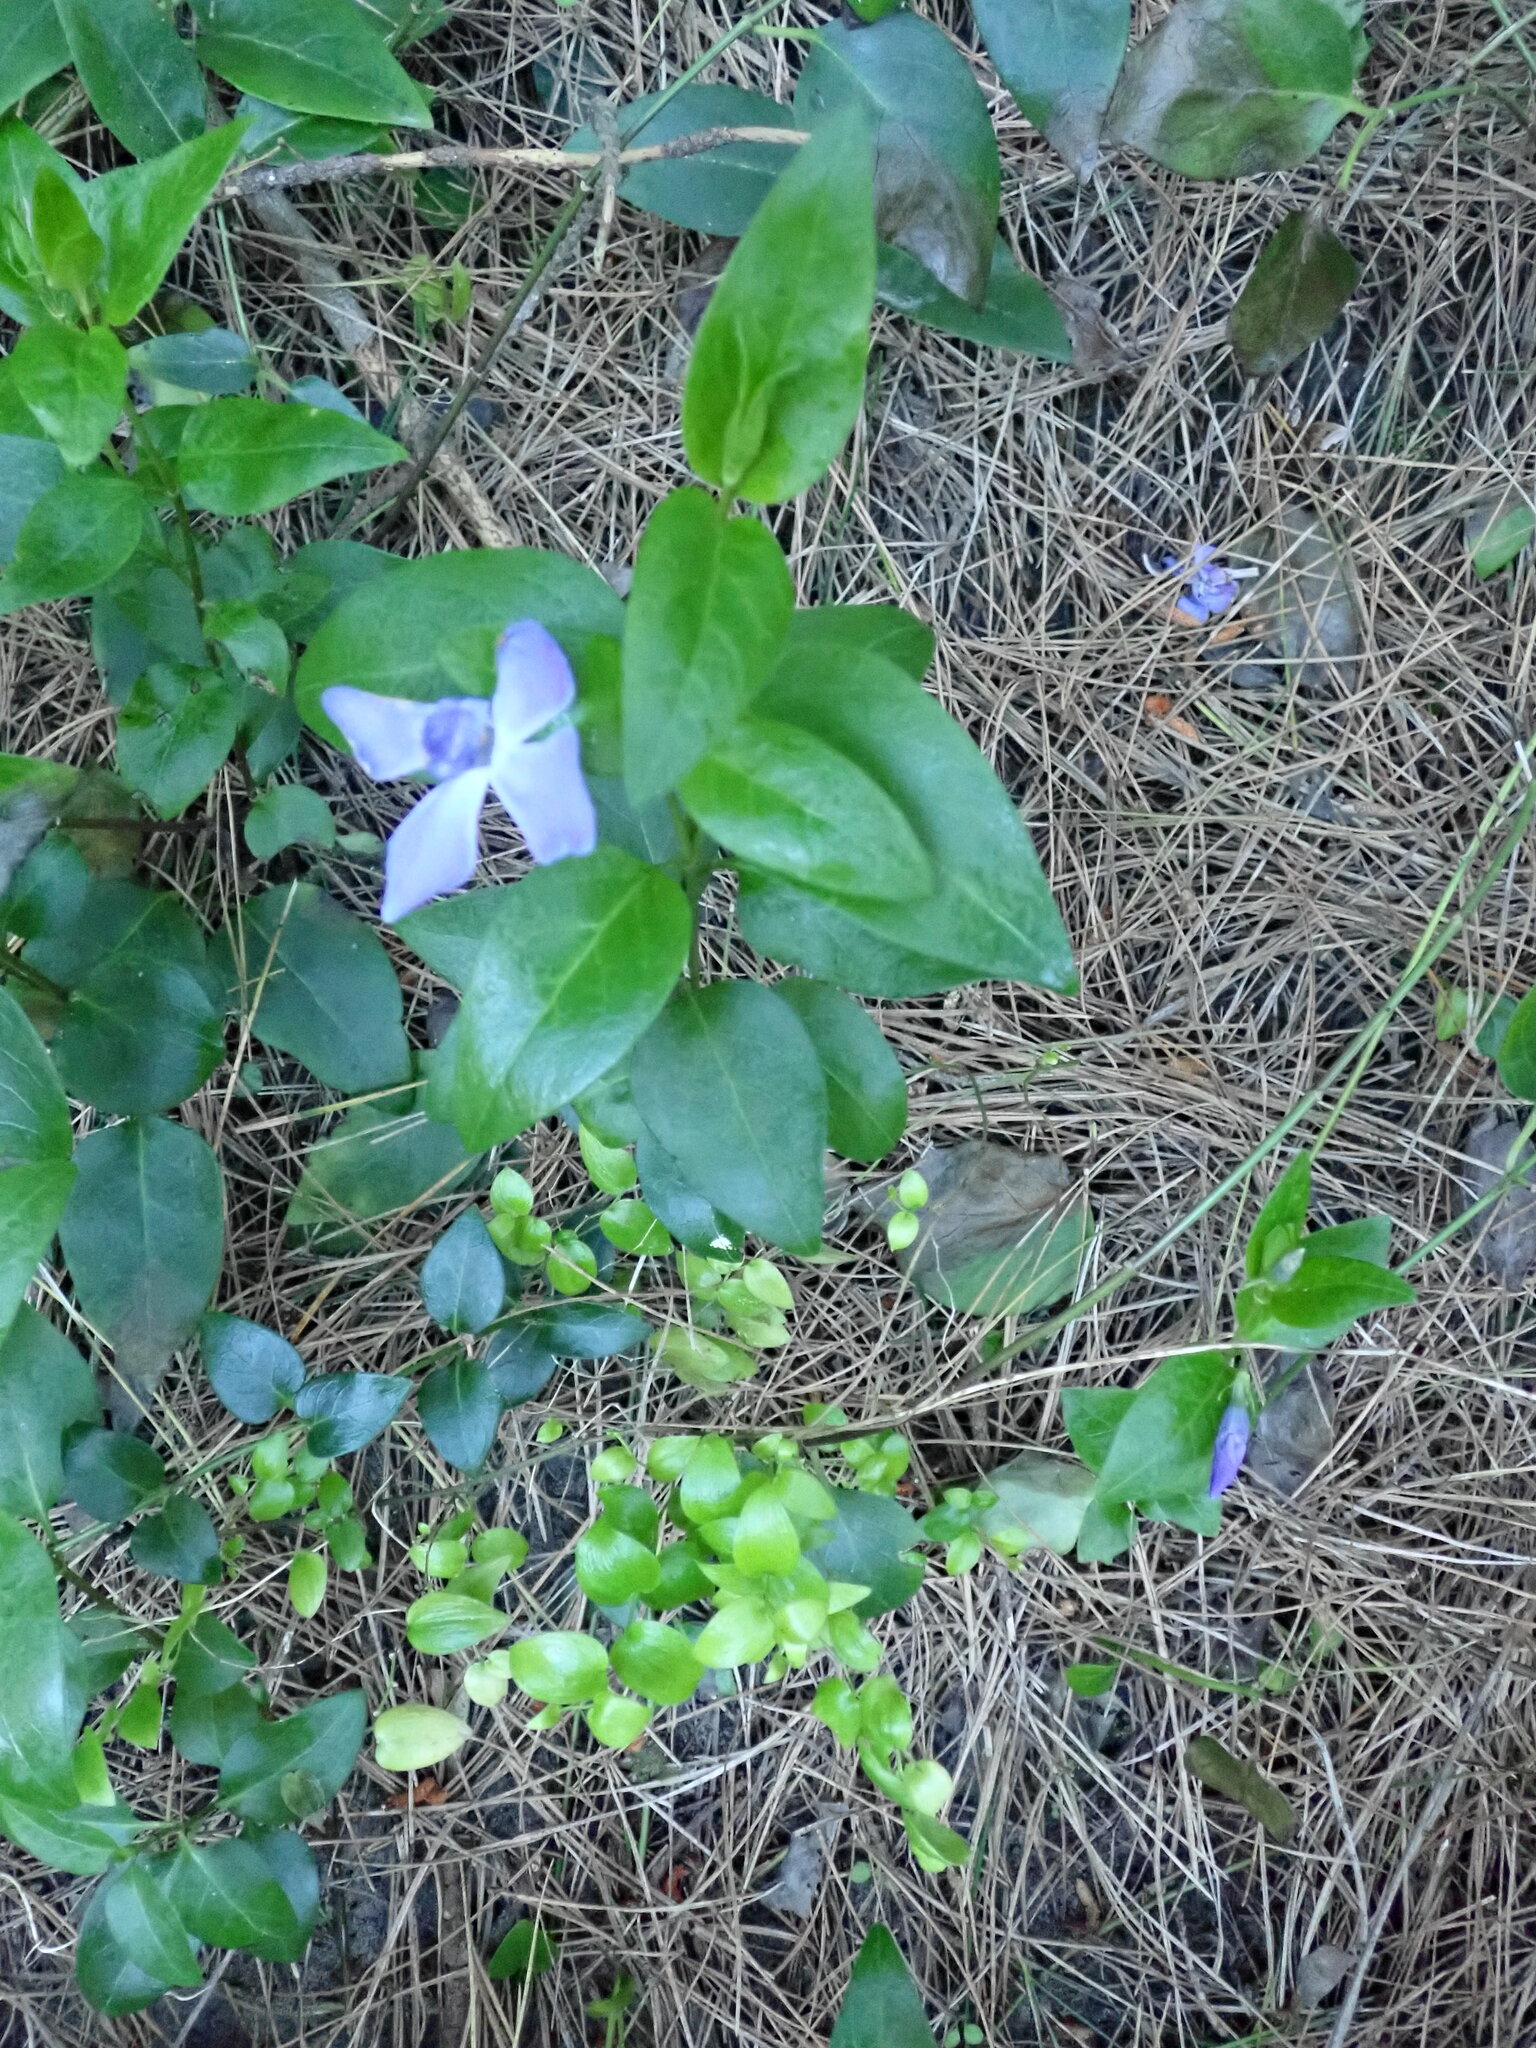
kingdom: Plantae
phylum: Tracheophyta
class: Magnoliopsida
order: Gentianales
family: Apocynaceae
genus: Vinca
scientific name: Vinca major
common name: Greater periwinkle
